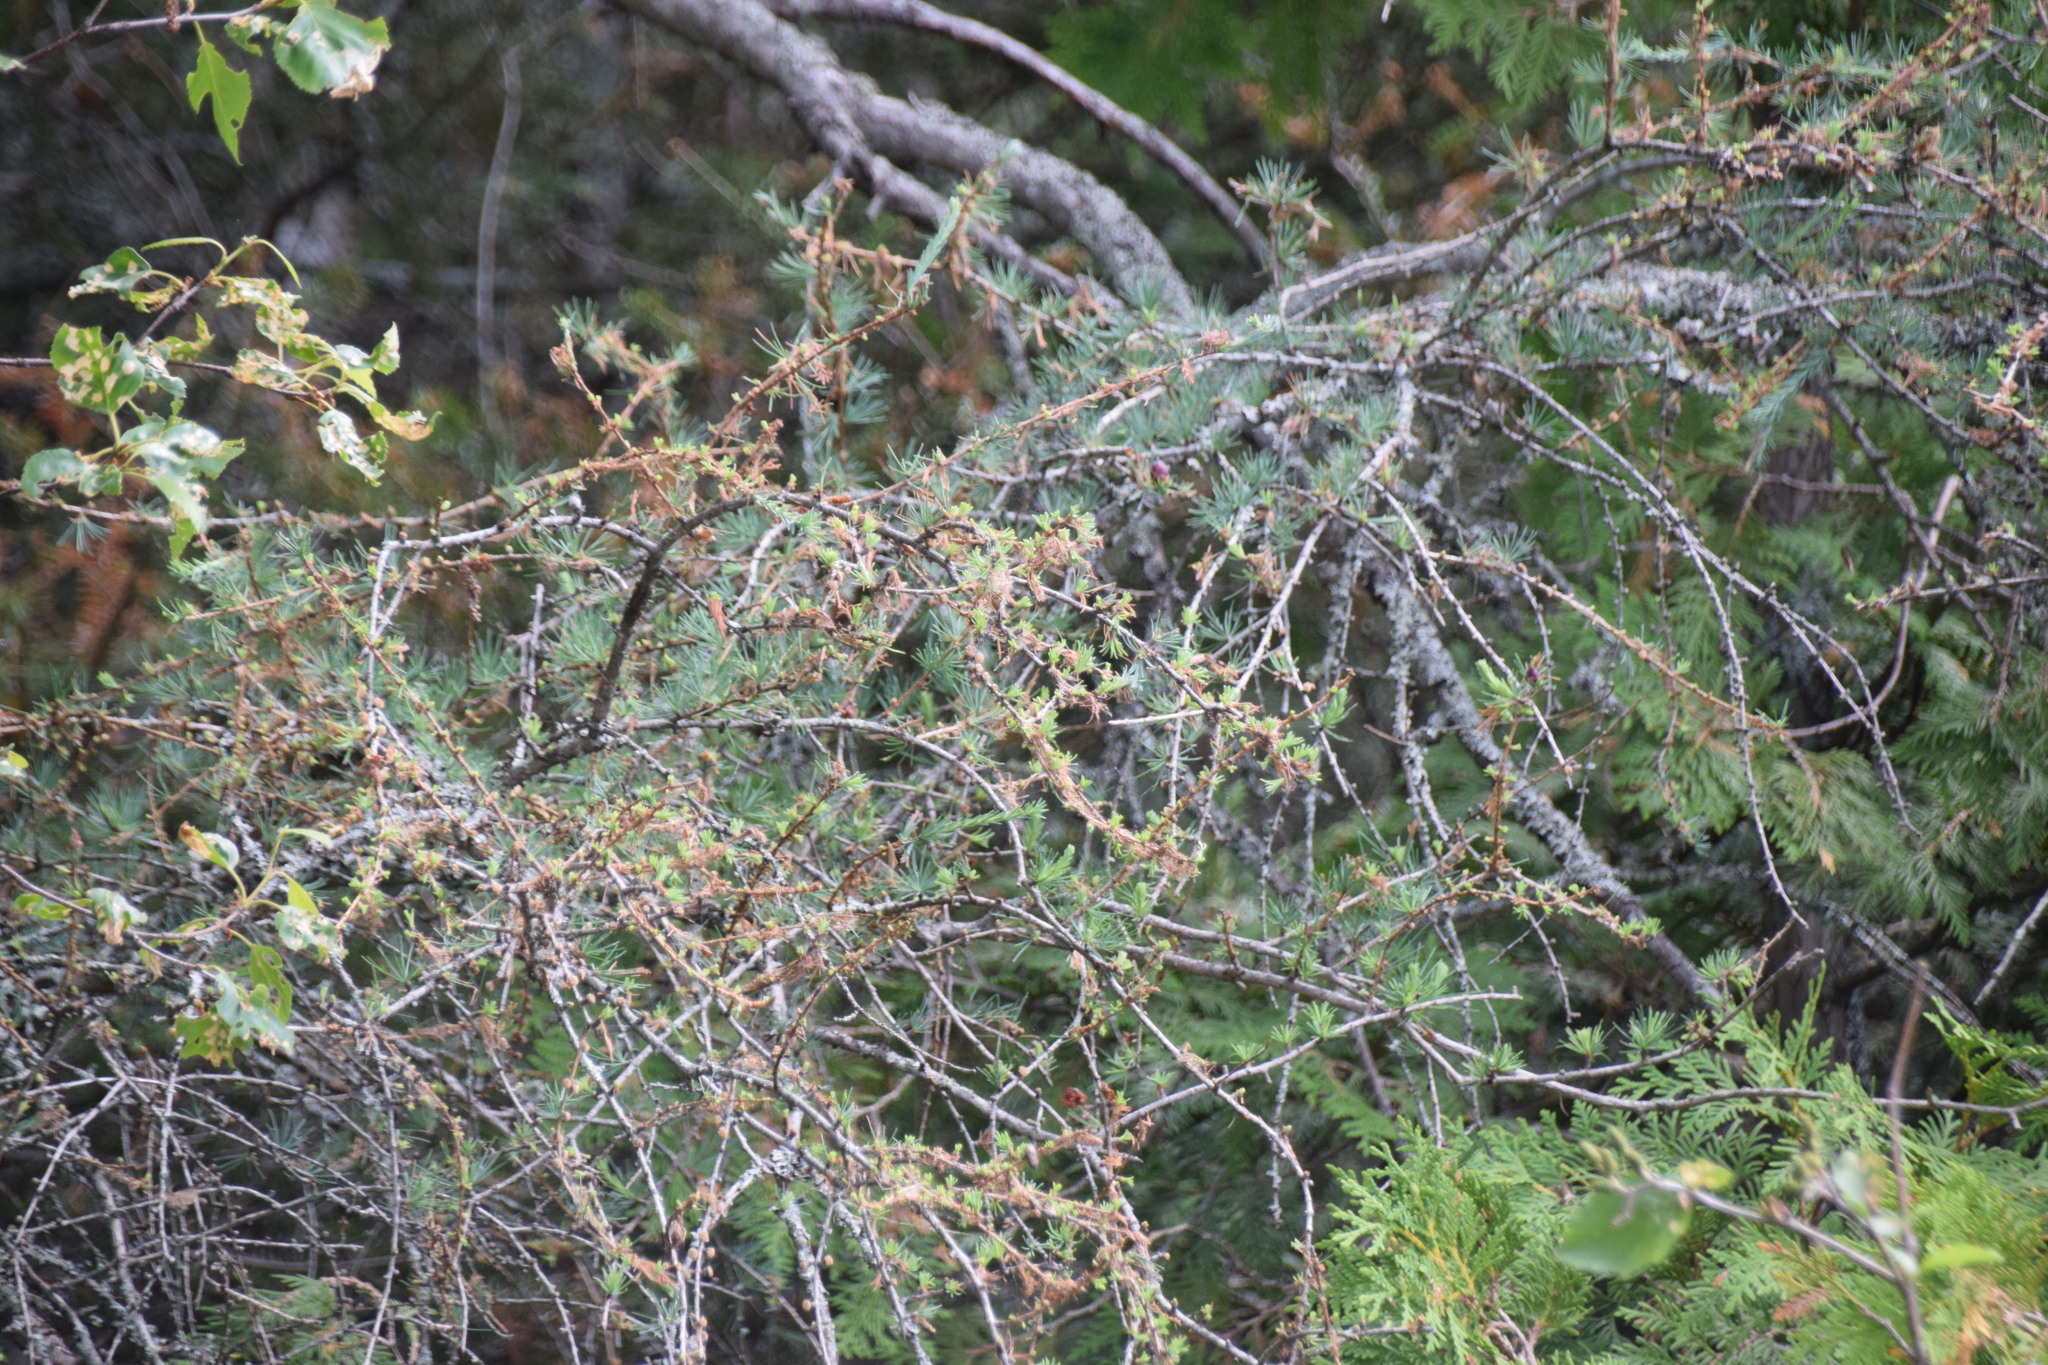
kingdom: Plantae
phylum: Tracheophyta
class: Pinopsida
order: Pinales
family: Pinaceae
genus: Larix
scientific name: Larix laricina
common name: American larch
